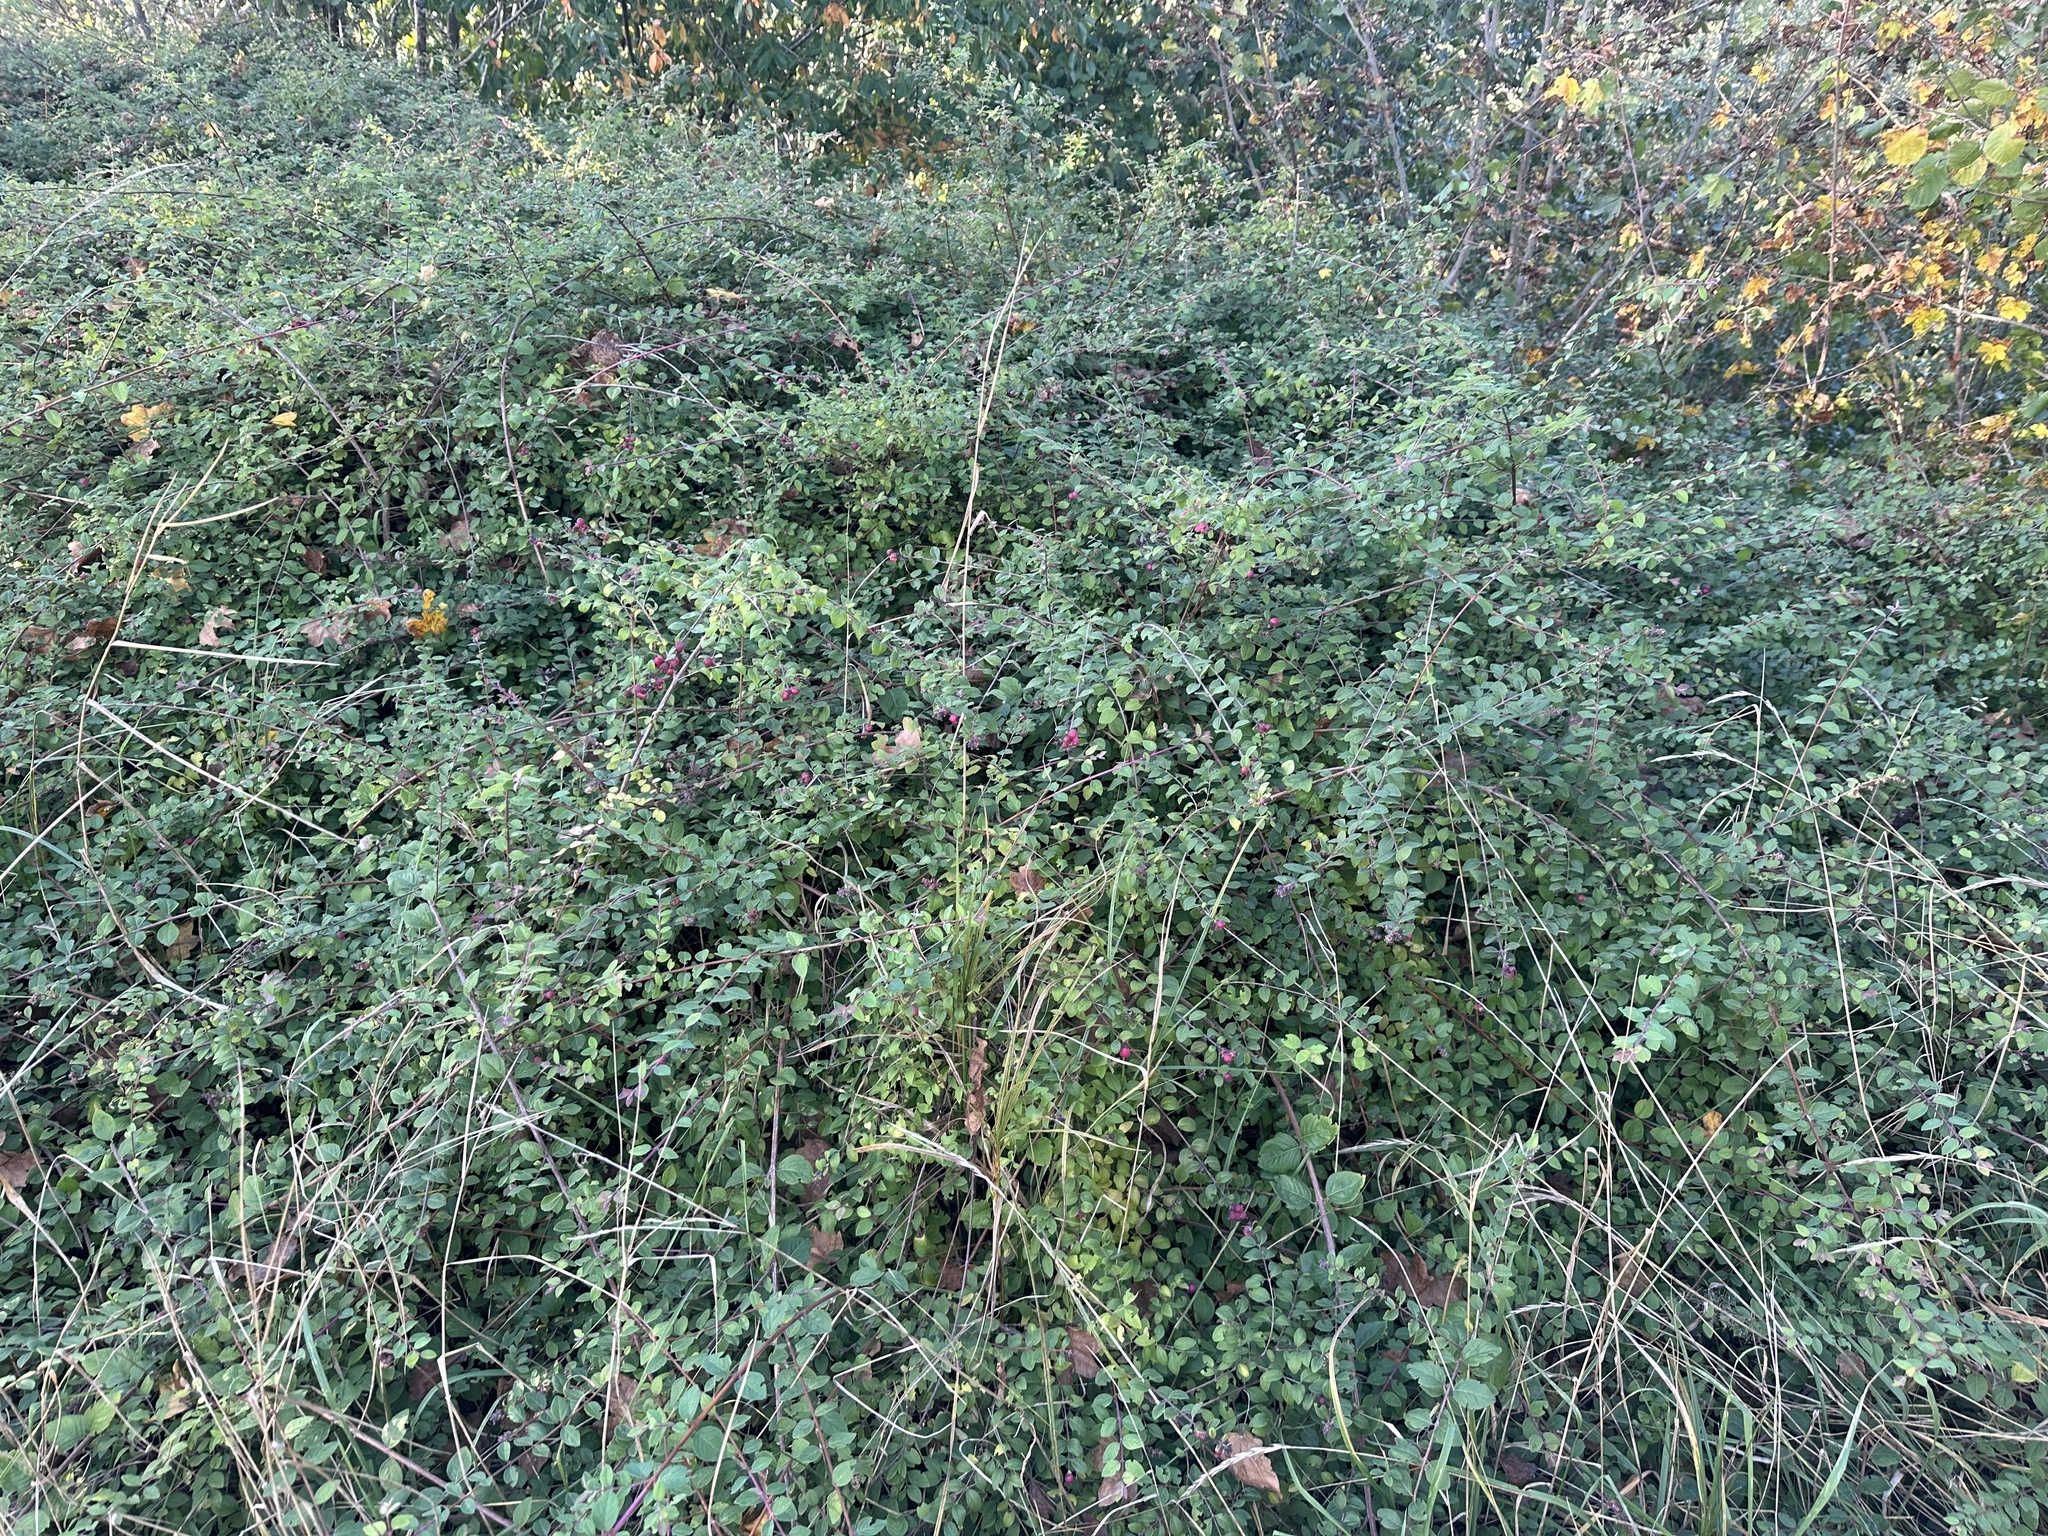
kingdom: Plantae
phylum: Tracheophyta
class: Magnoliopsida
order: Dipsacales
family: Caprifoliaceae
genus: Symphoricarpos
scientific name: Symphoricarpos orbiculatus
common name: Coralberry
